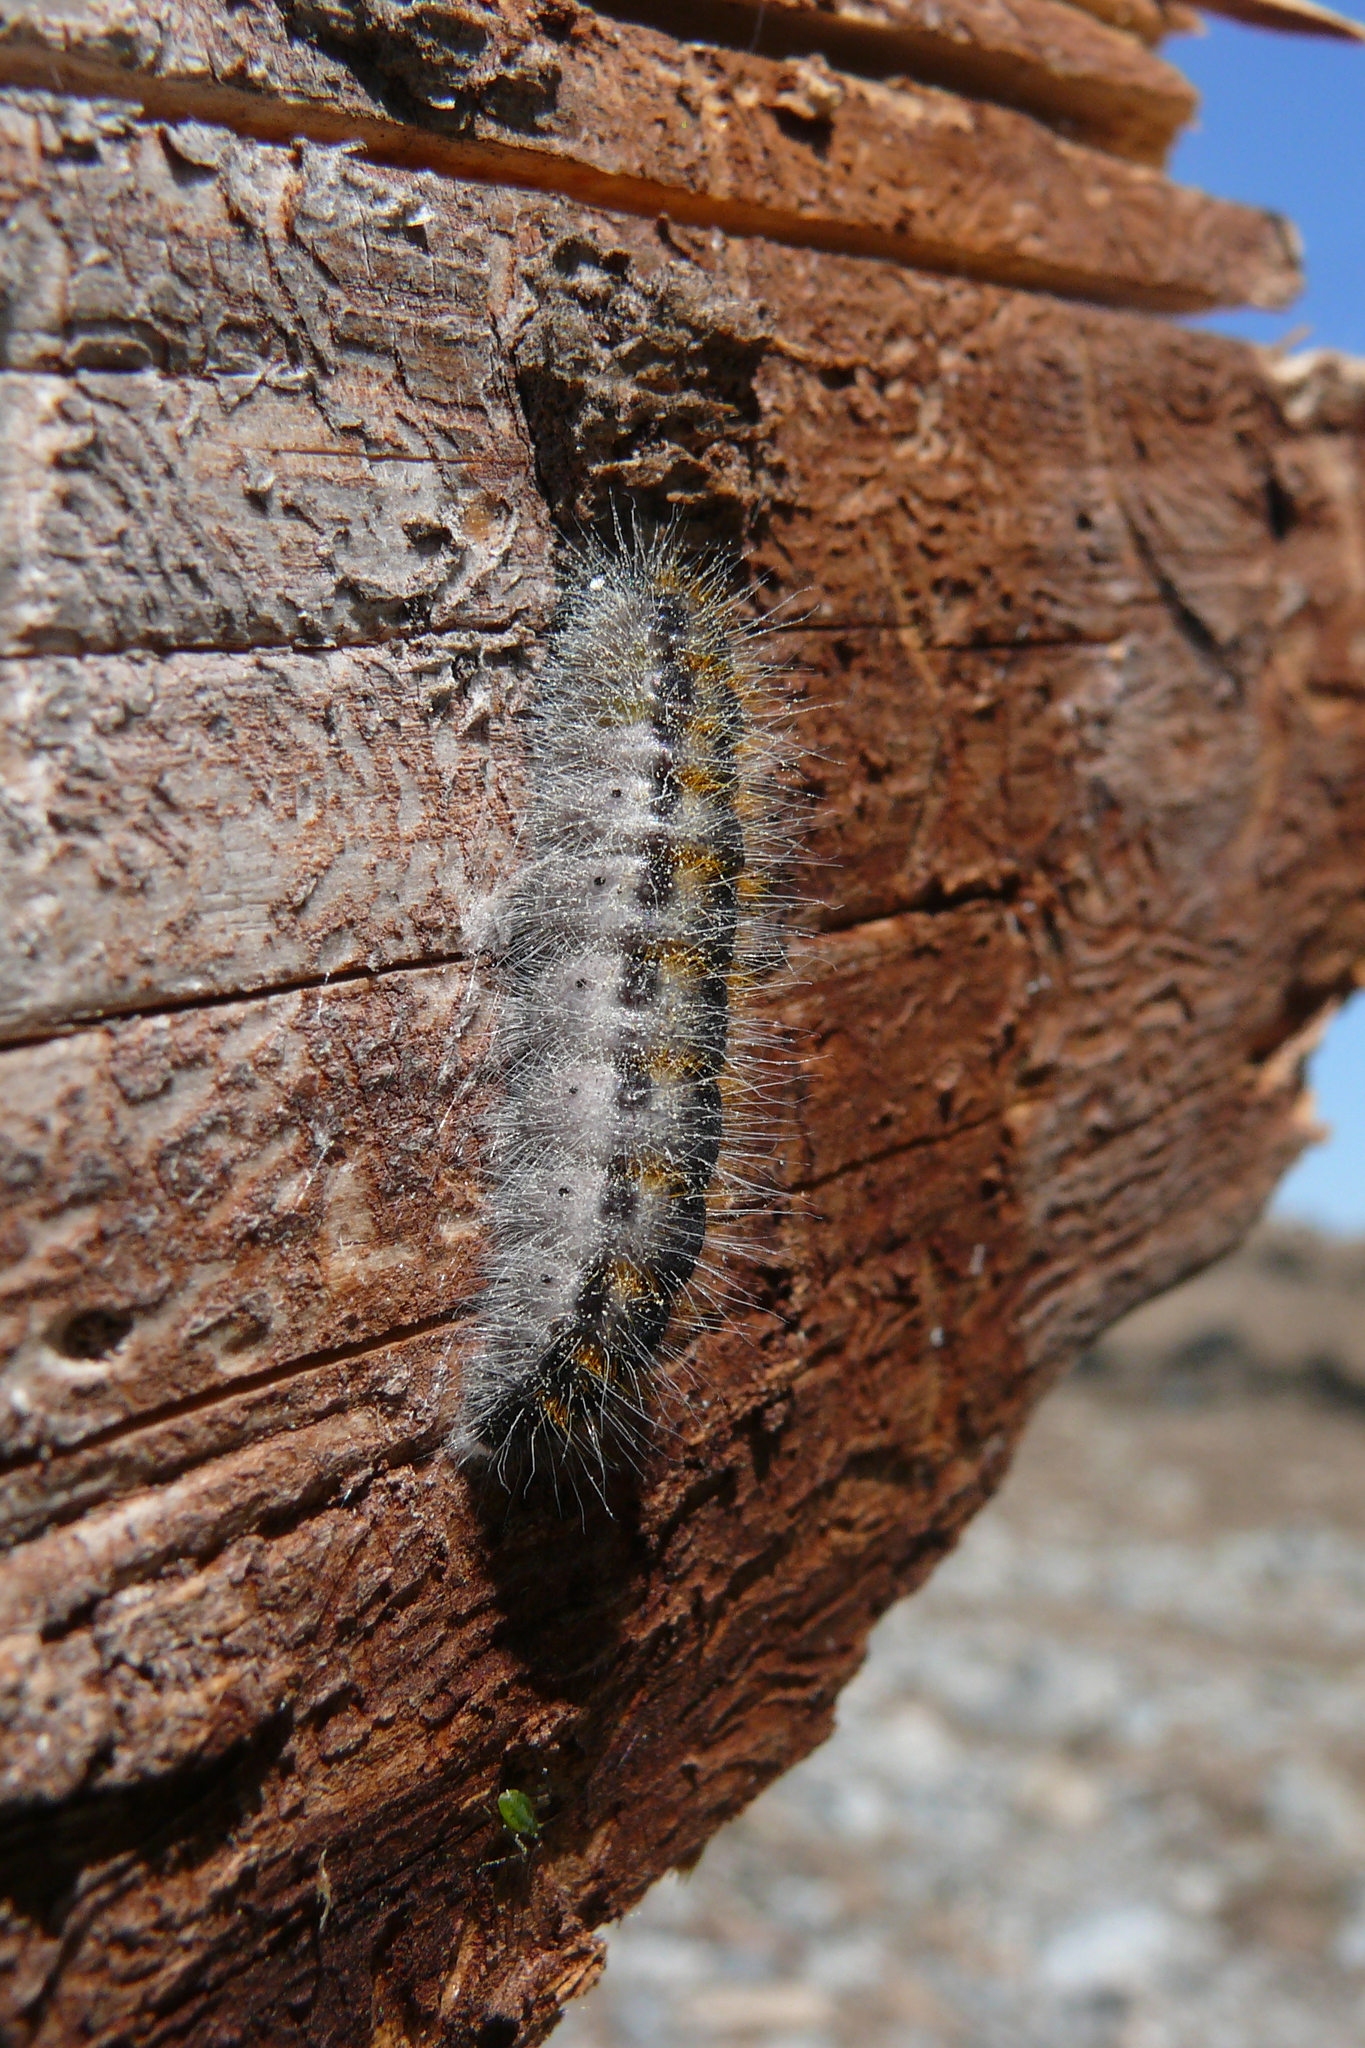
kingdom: Animalia
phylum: Arthropoda
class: Insecta
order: Lepidoptera
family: Pieridae
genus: Aporia
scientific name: Aporia crataegi
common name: Black-veined white
